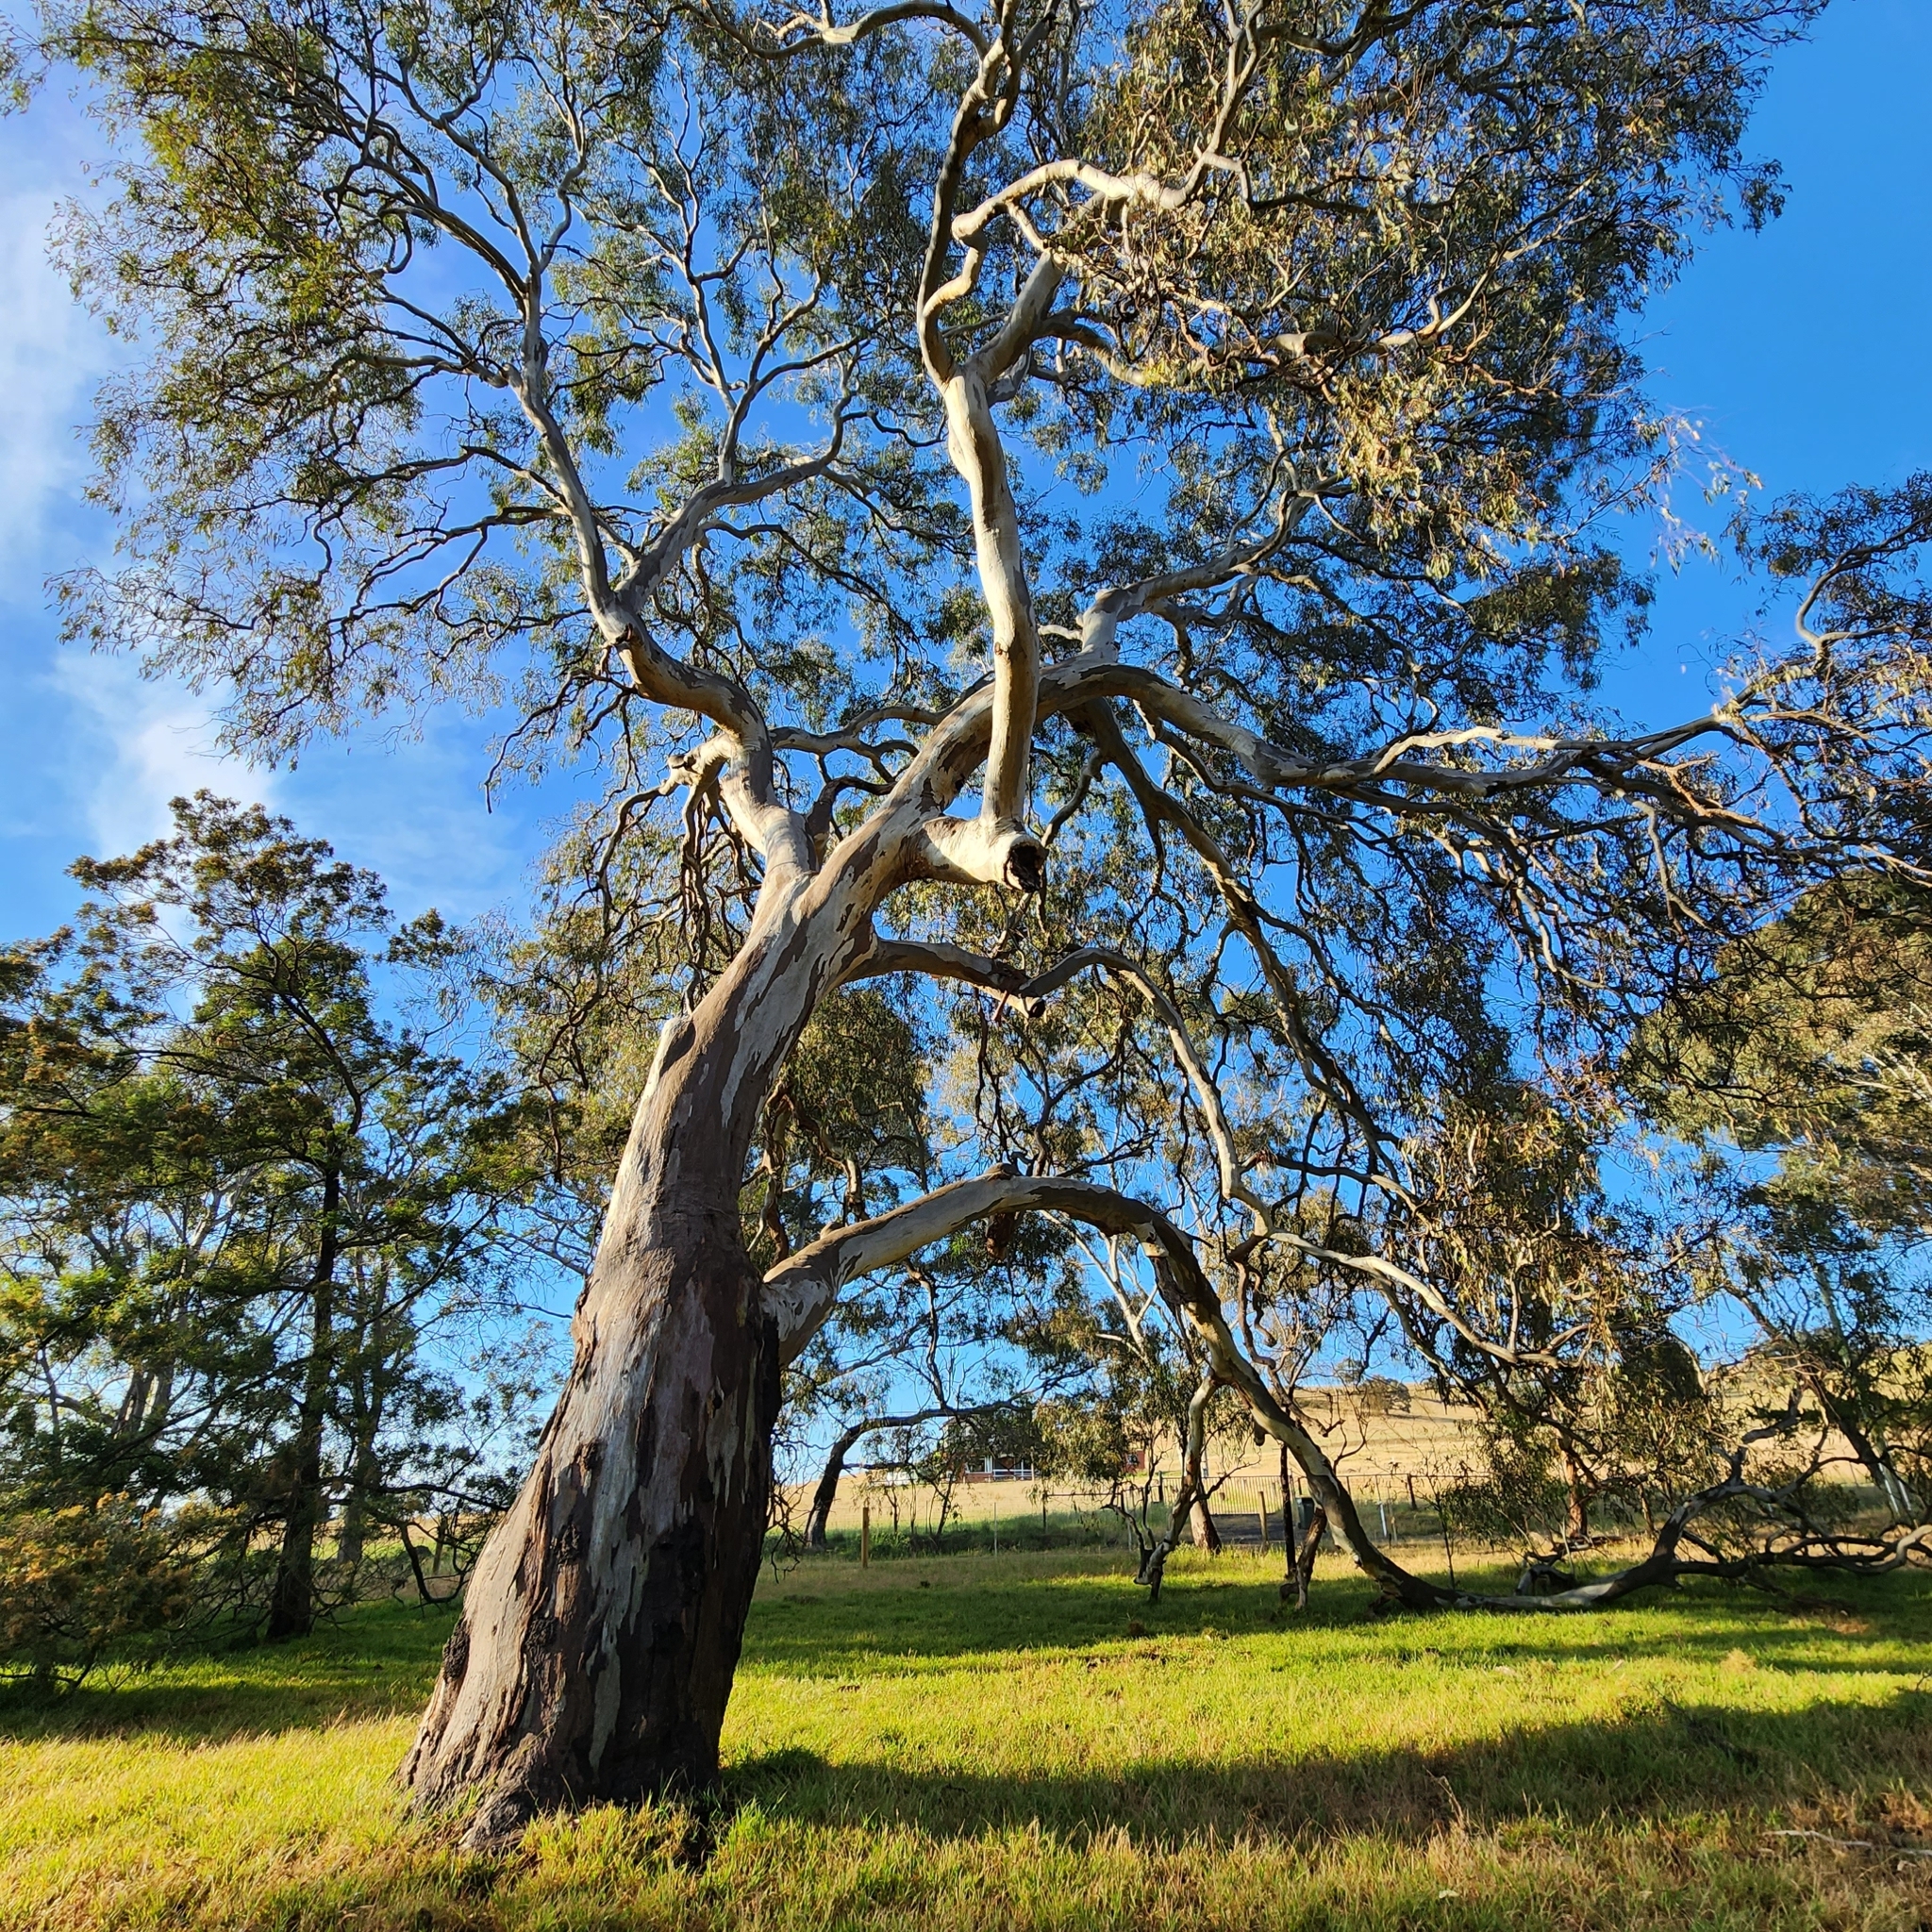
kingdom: Plantae
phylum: Tracheophyta
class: Magnoliopsida
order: Myrtales
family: Myrtaceae
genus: Eucalyptus
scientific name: Eucalyptus camaldulensis
